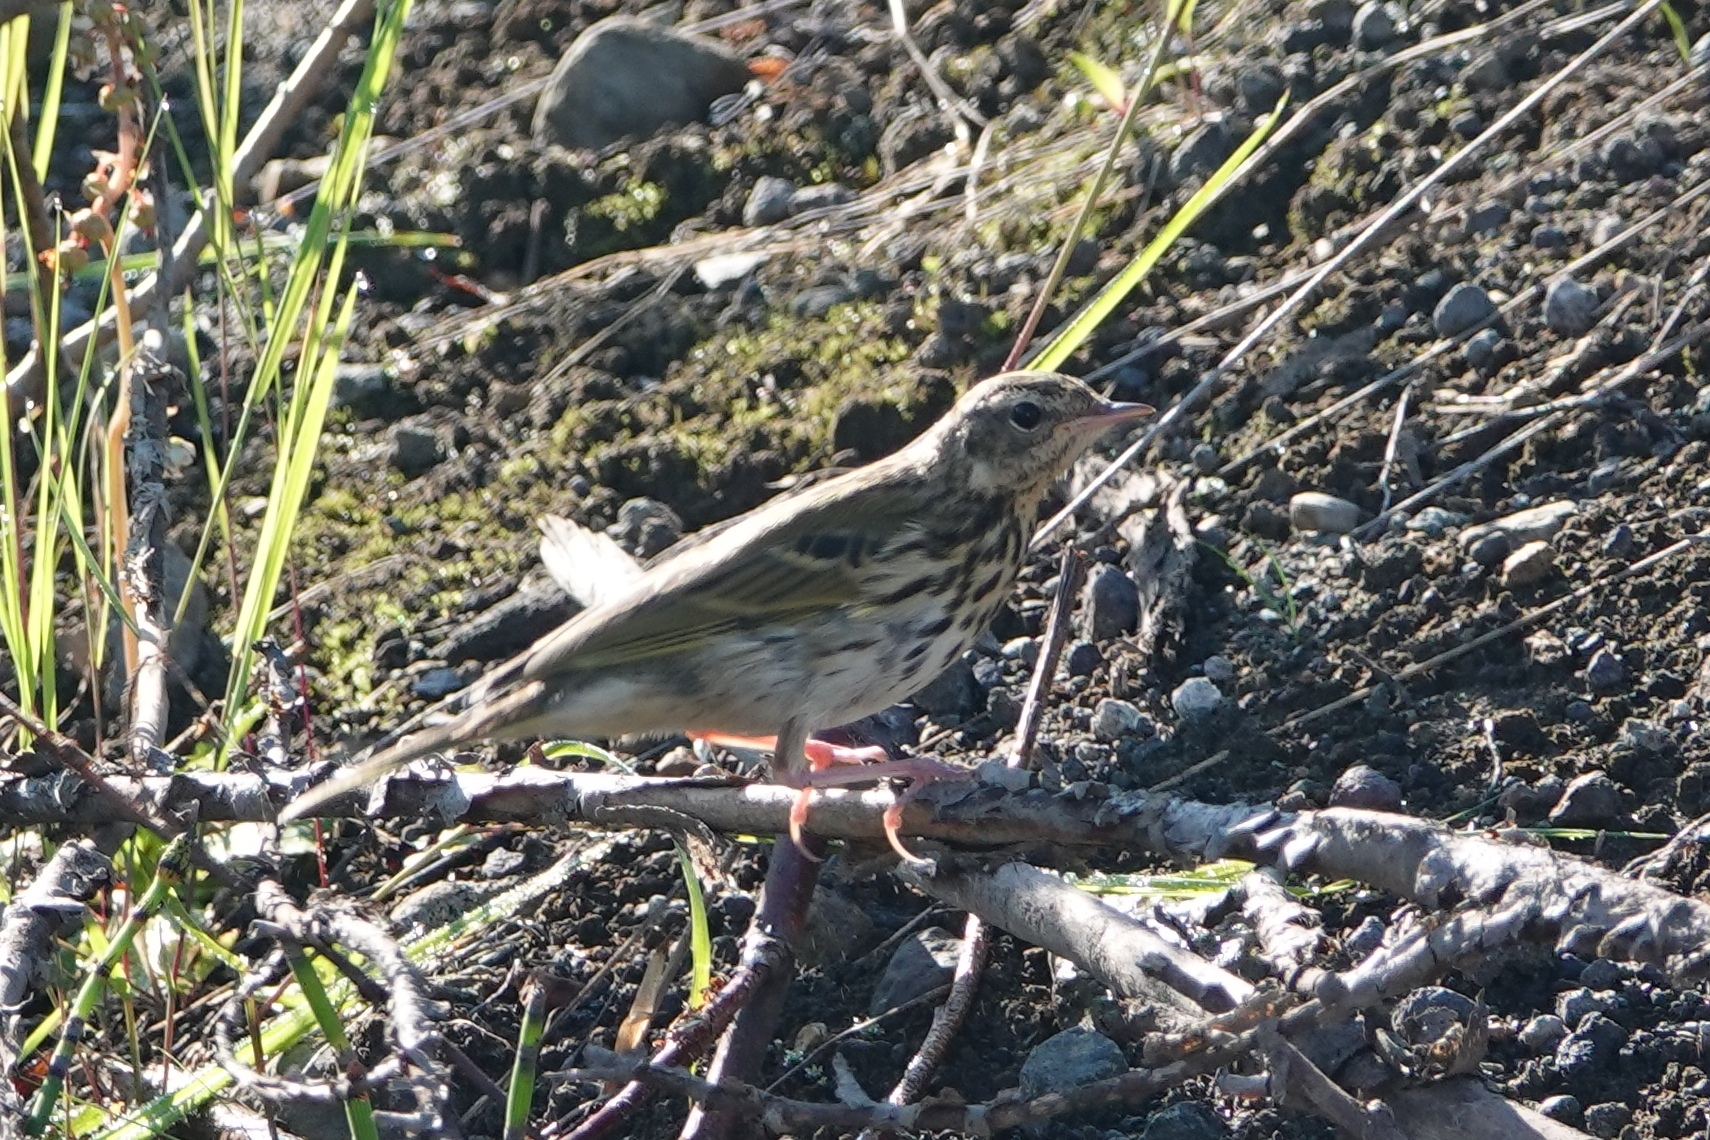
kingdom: Animalia
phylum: Chordata
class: Aves
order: Passeriformes
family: Motacillidae
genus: Anthus
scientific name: Anthus hodgsoni
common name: Olive-backed pipit
